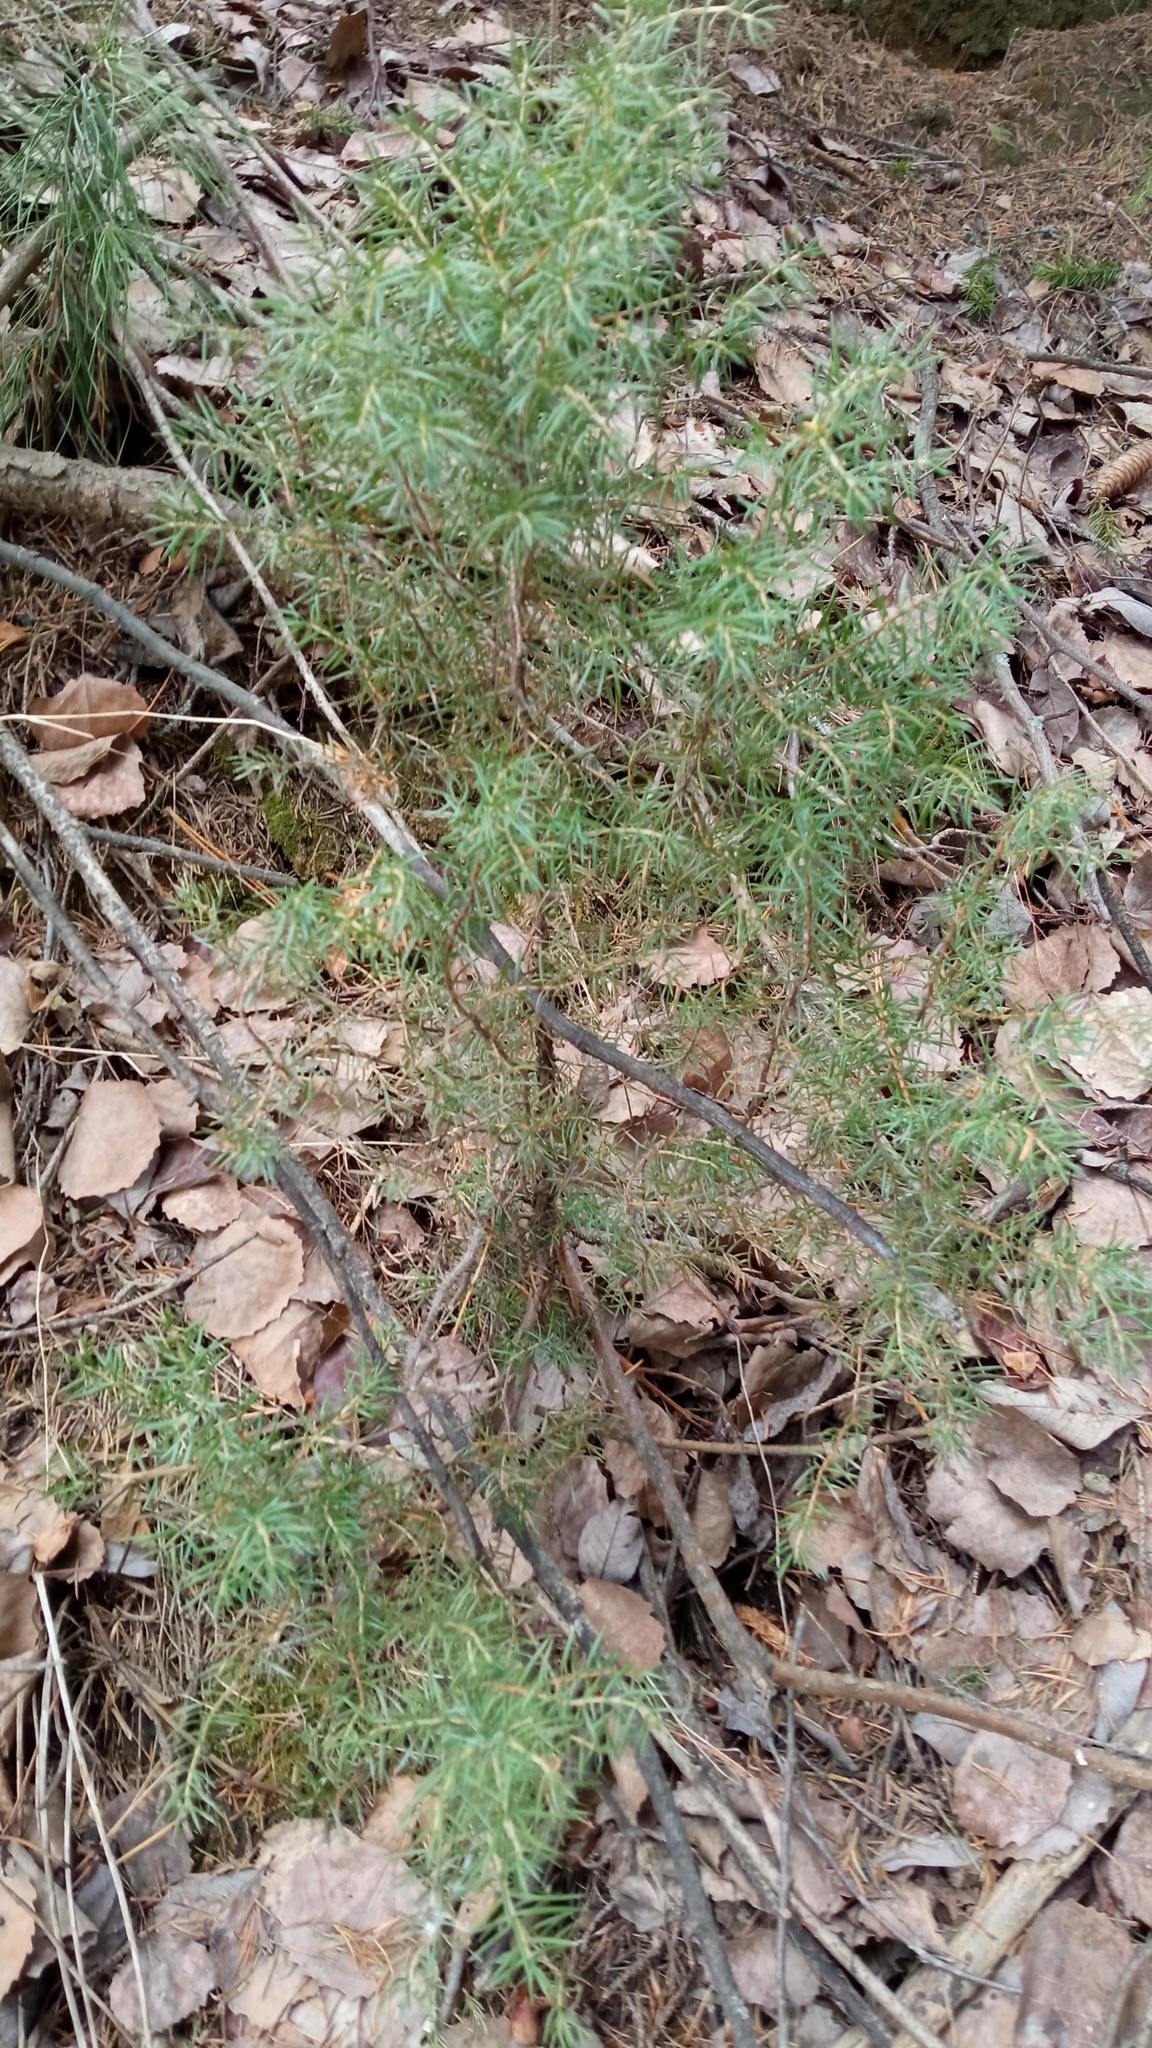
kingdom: Plantae
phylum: Tracheophyta
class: Pinopsida
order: Pinales
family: Cupressaceae
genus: Juniperus
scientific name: Juniperus communis
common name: Common juniper
